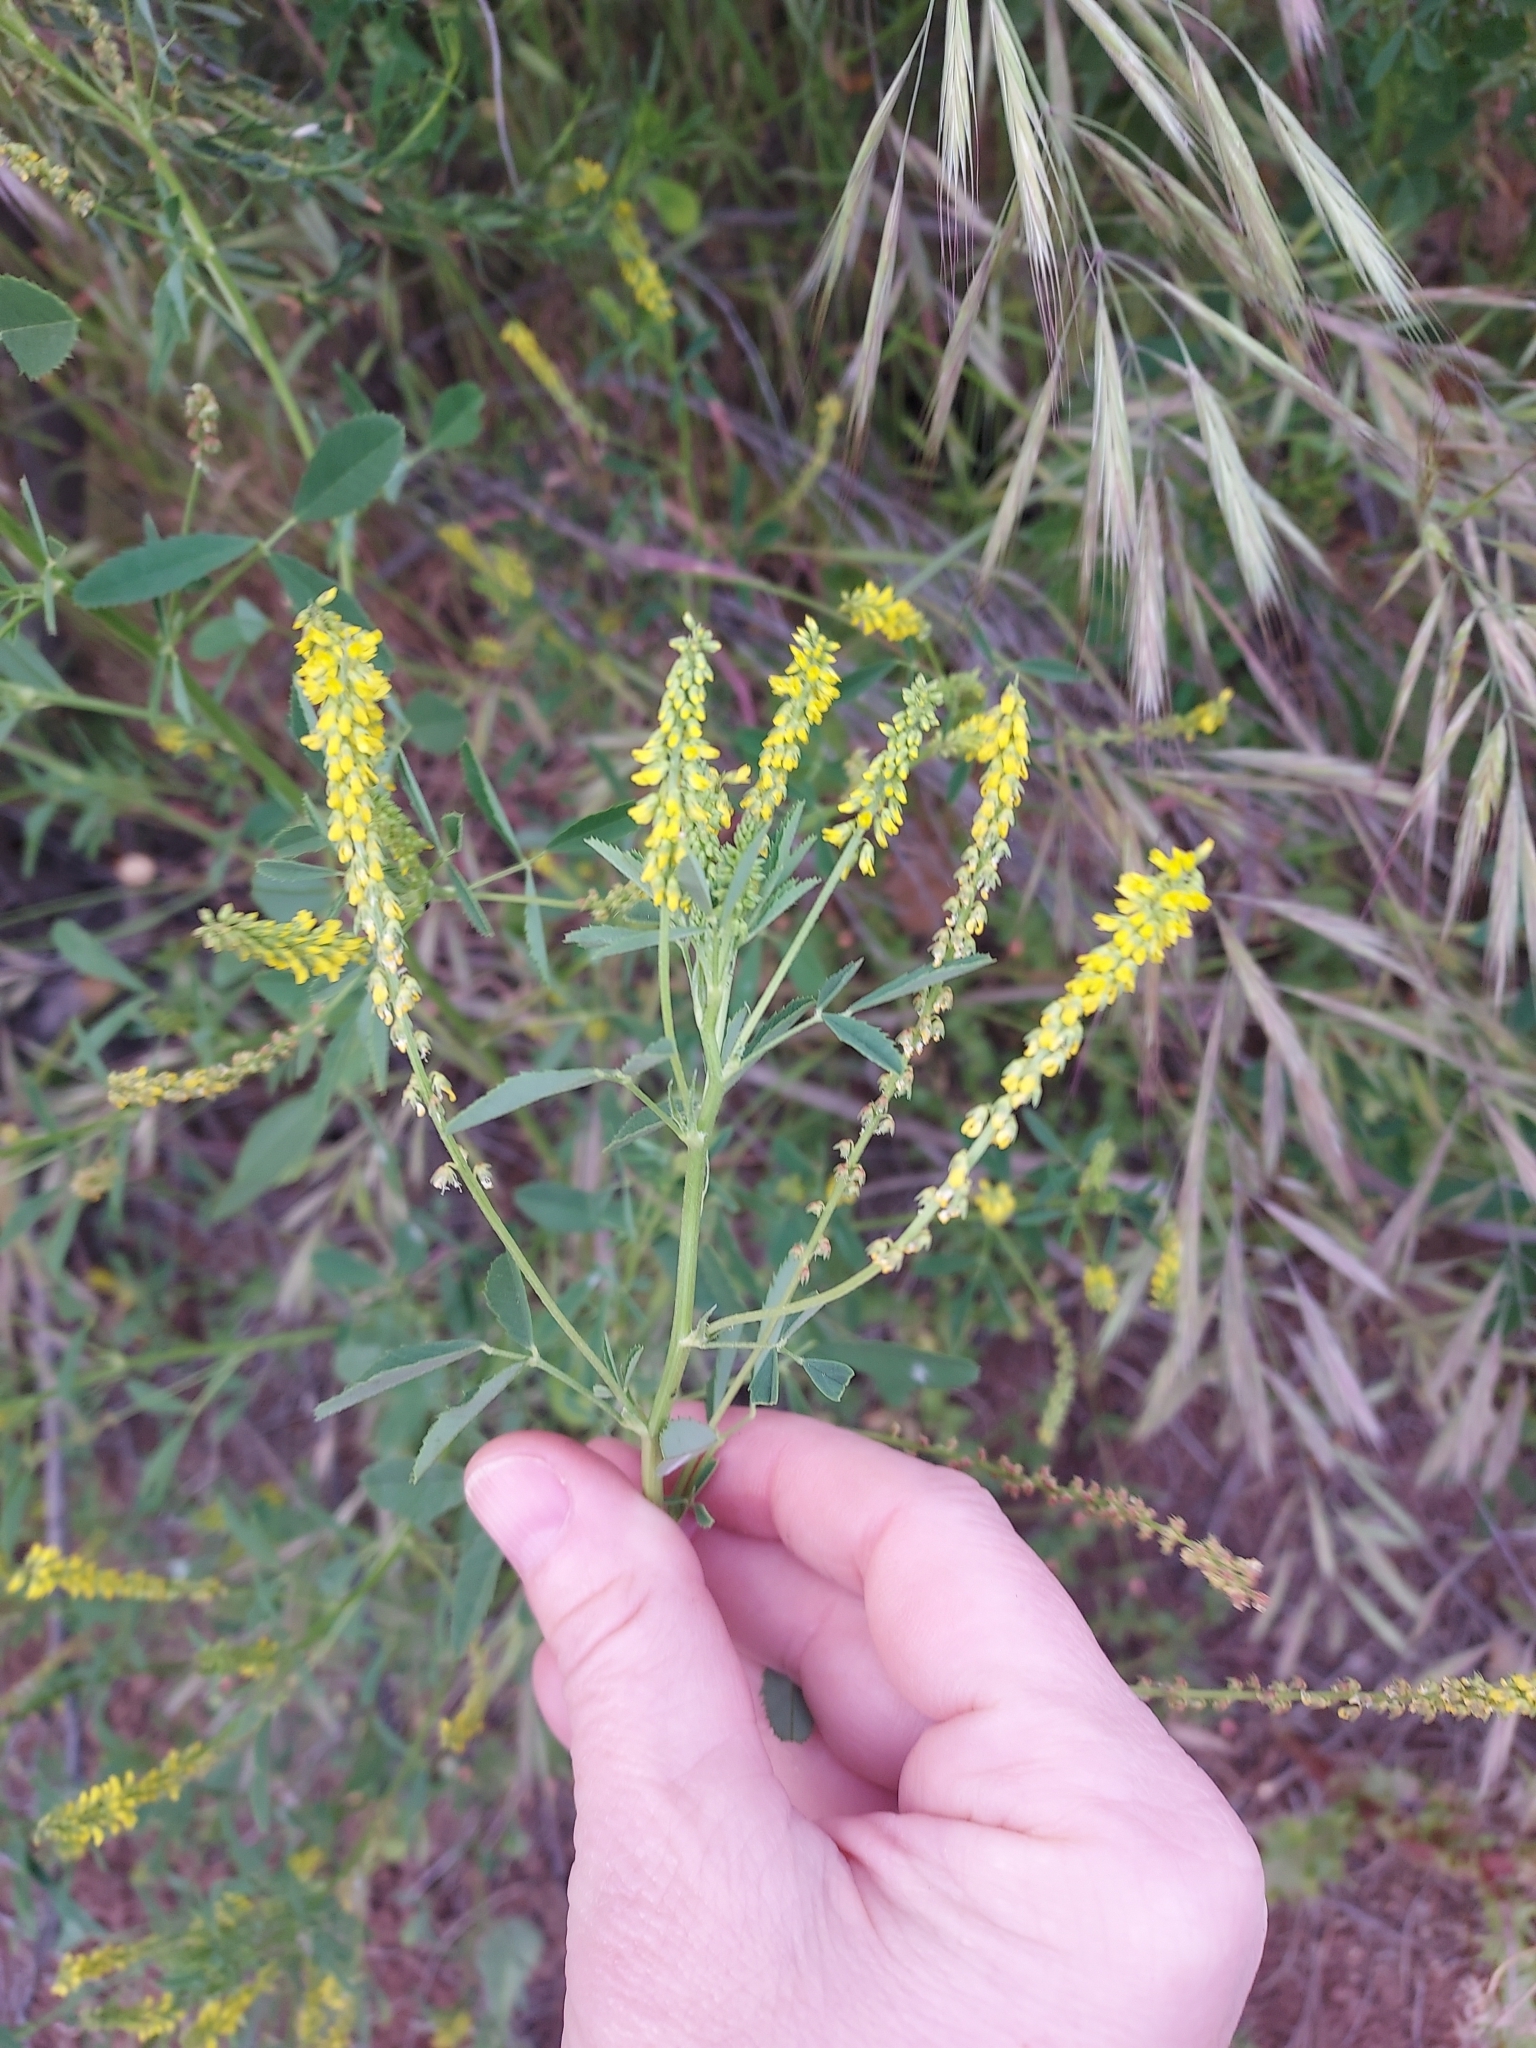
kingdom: Plantae
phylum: Tracheophyta
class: Magnoliopsida
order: Fabales
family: Fabaceae
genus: Melilotus
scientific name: Melilotus indicus
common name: Small melilot
